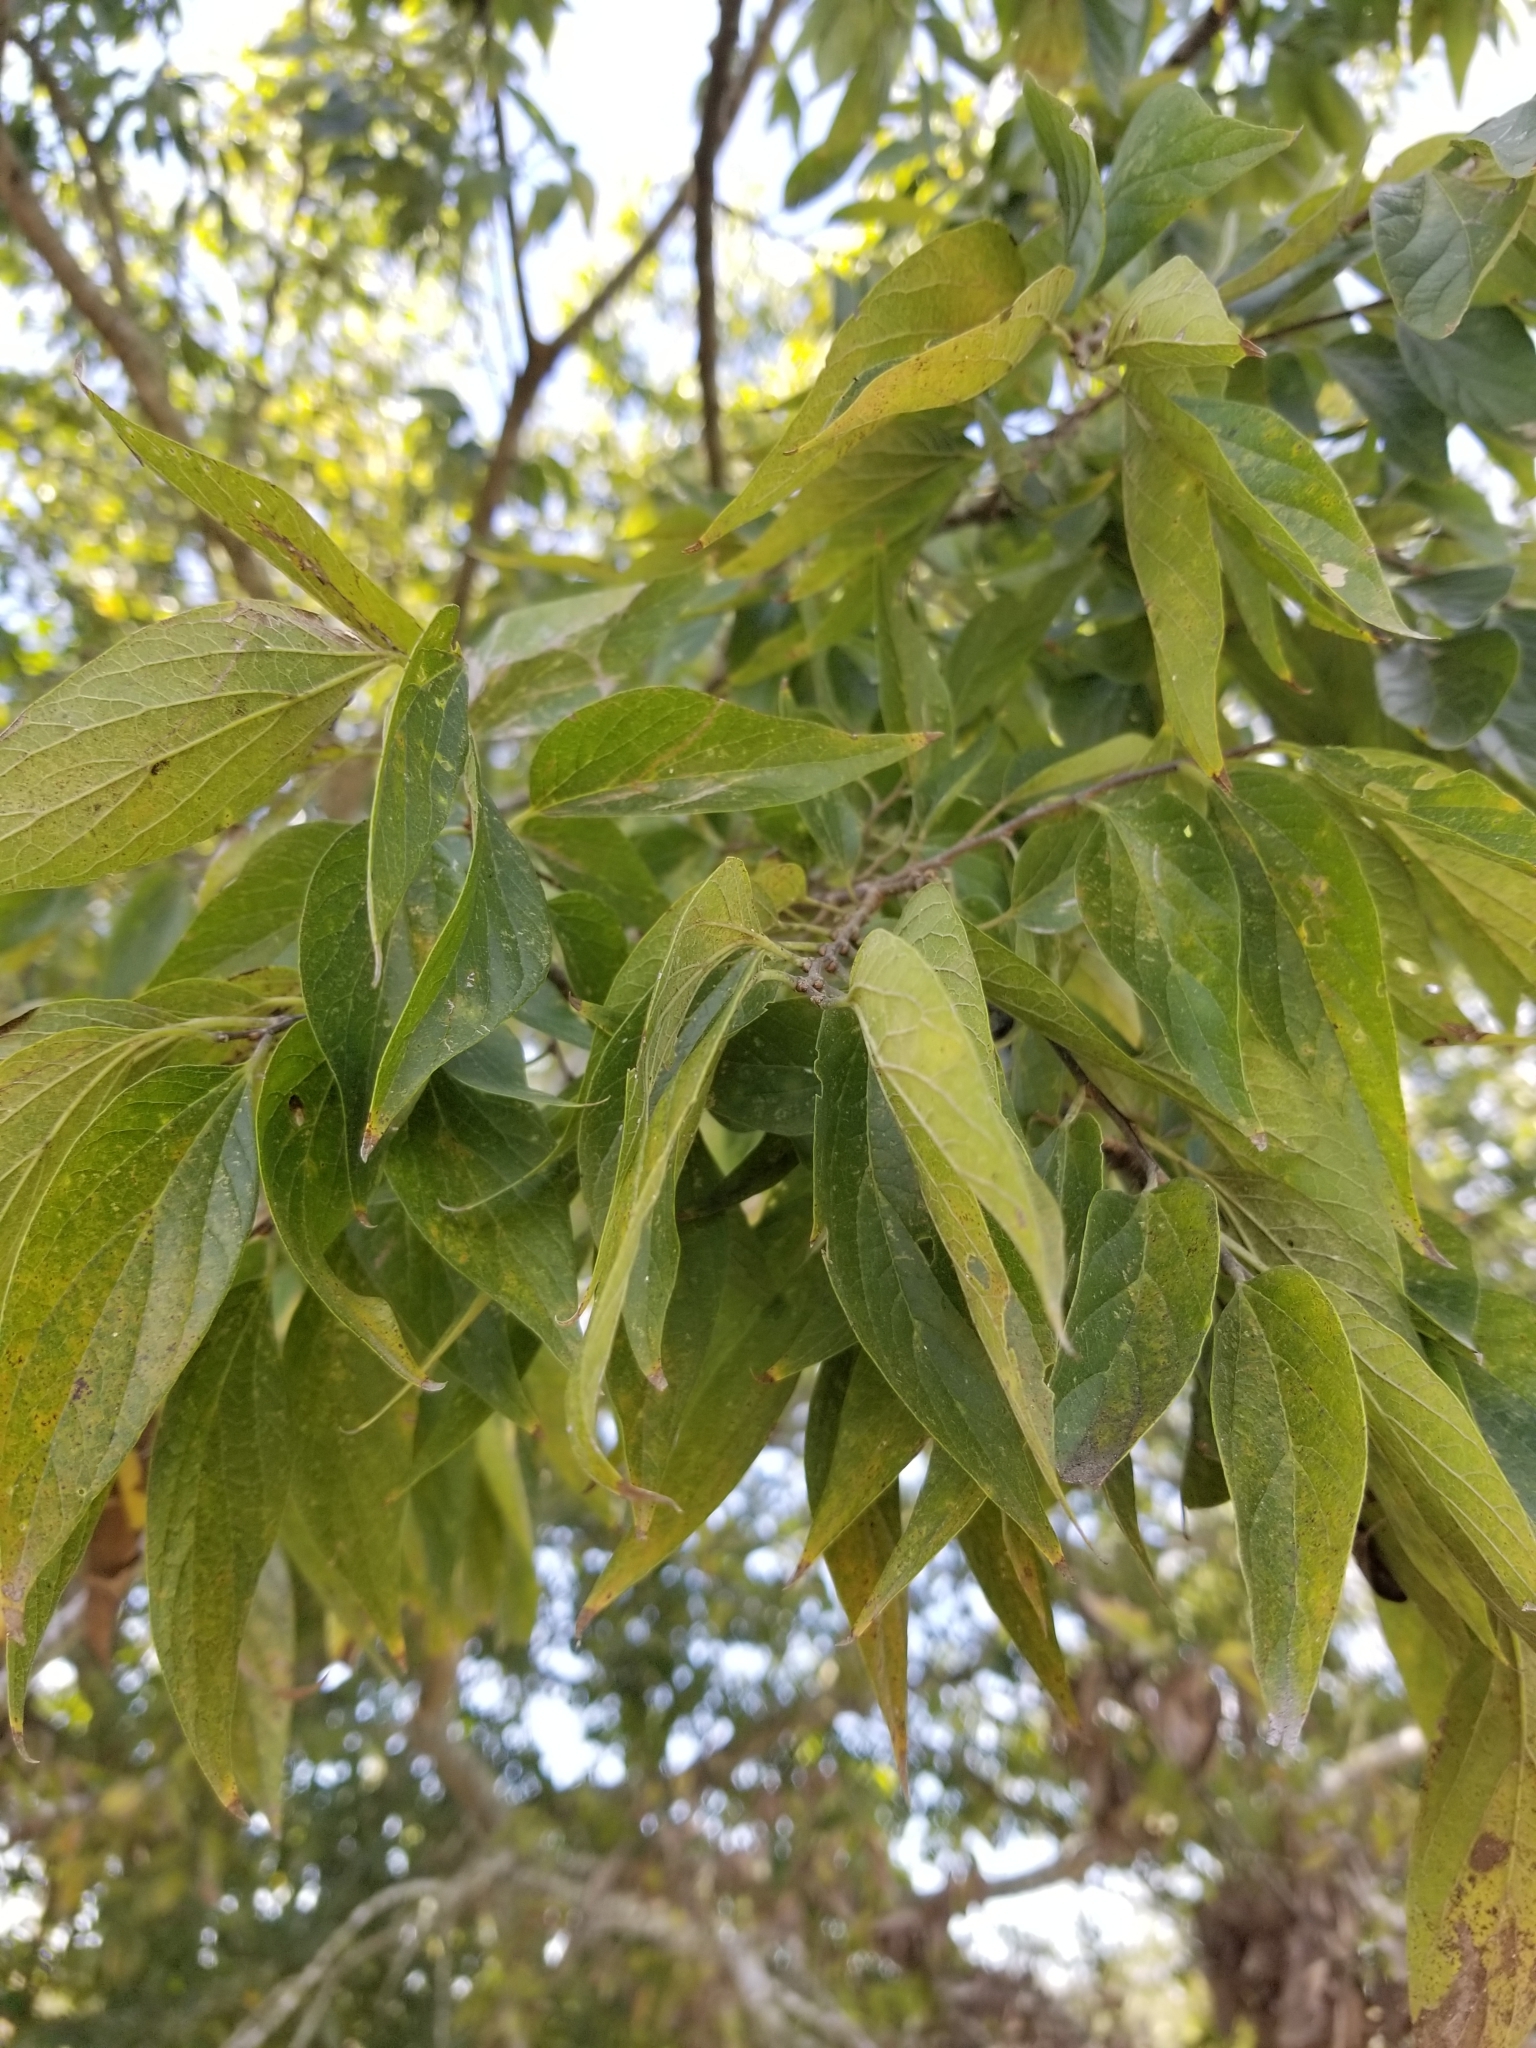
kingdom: Plantae
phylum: Tracheophyta
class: Magnoliopsida
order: Rosales
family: Cannabaceae
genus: Celtis
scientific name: Celtis laevigata
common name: Sugarberry
